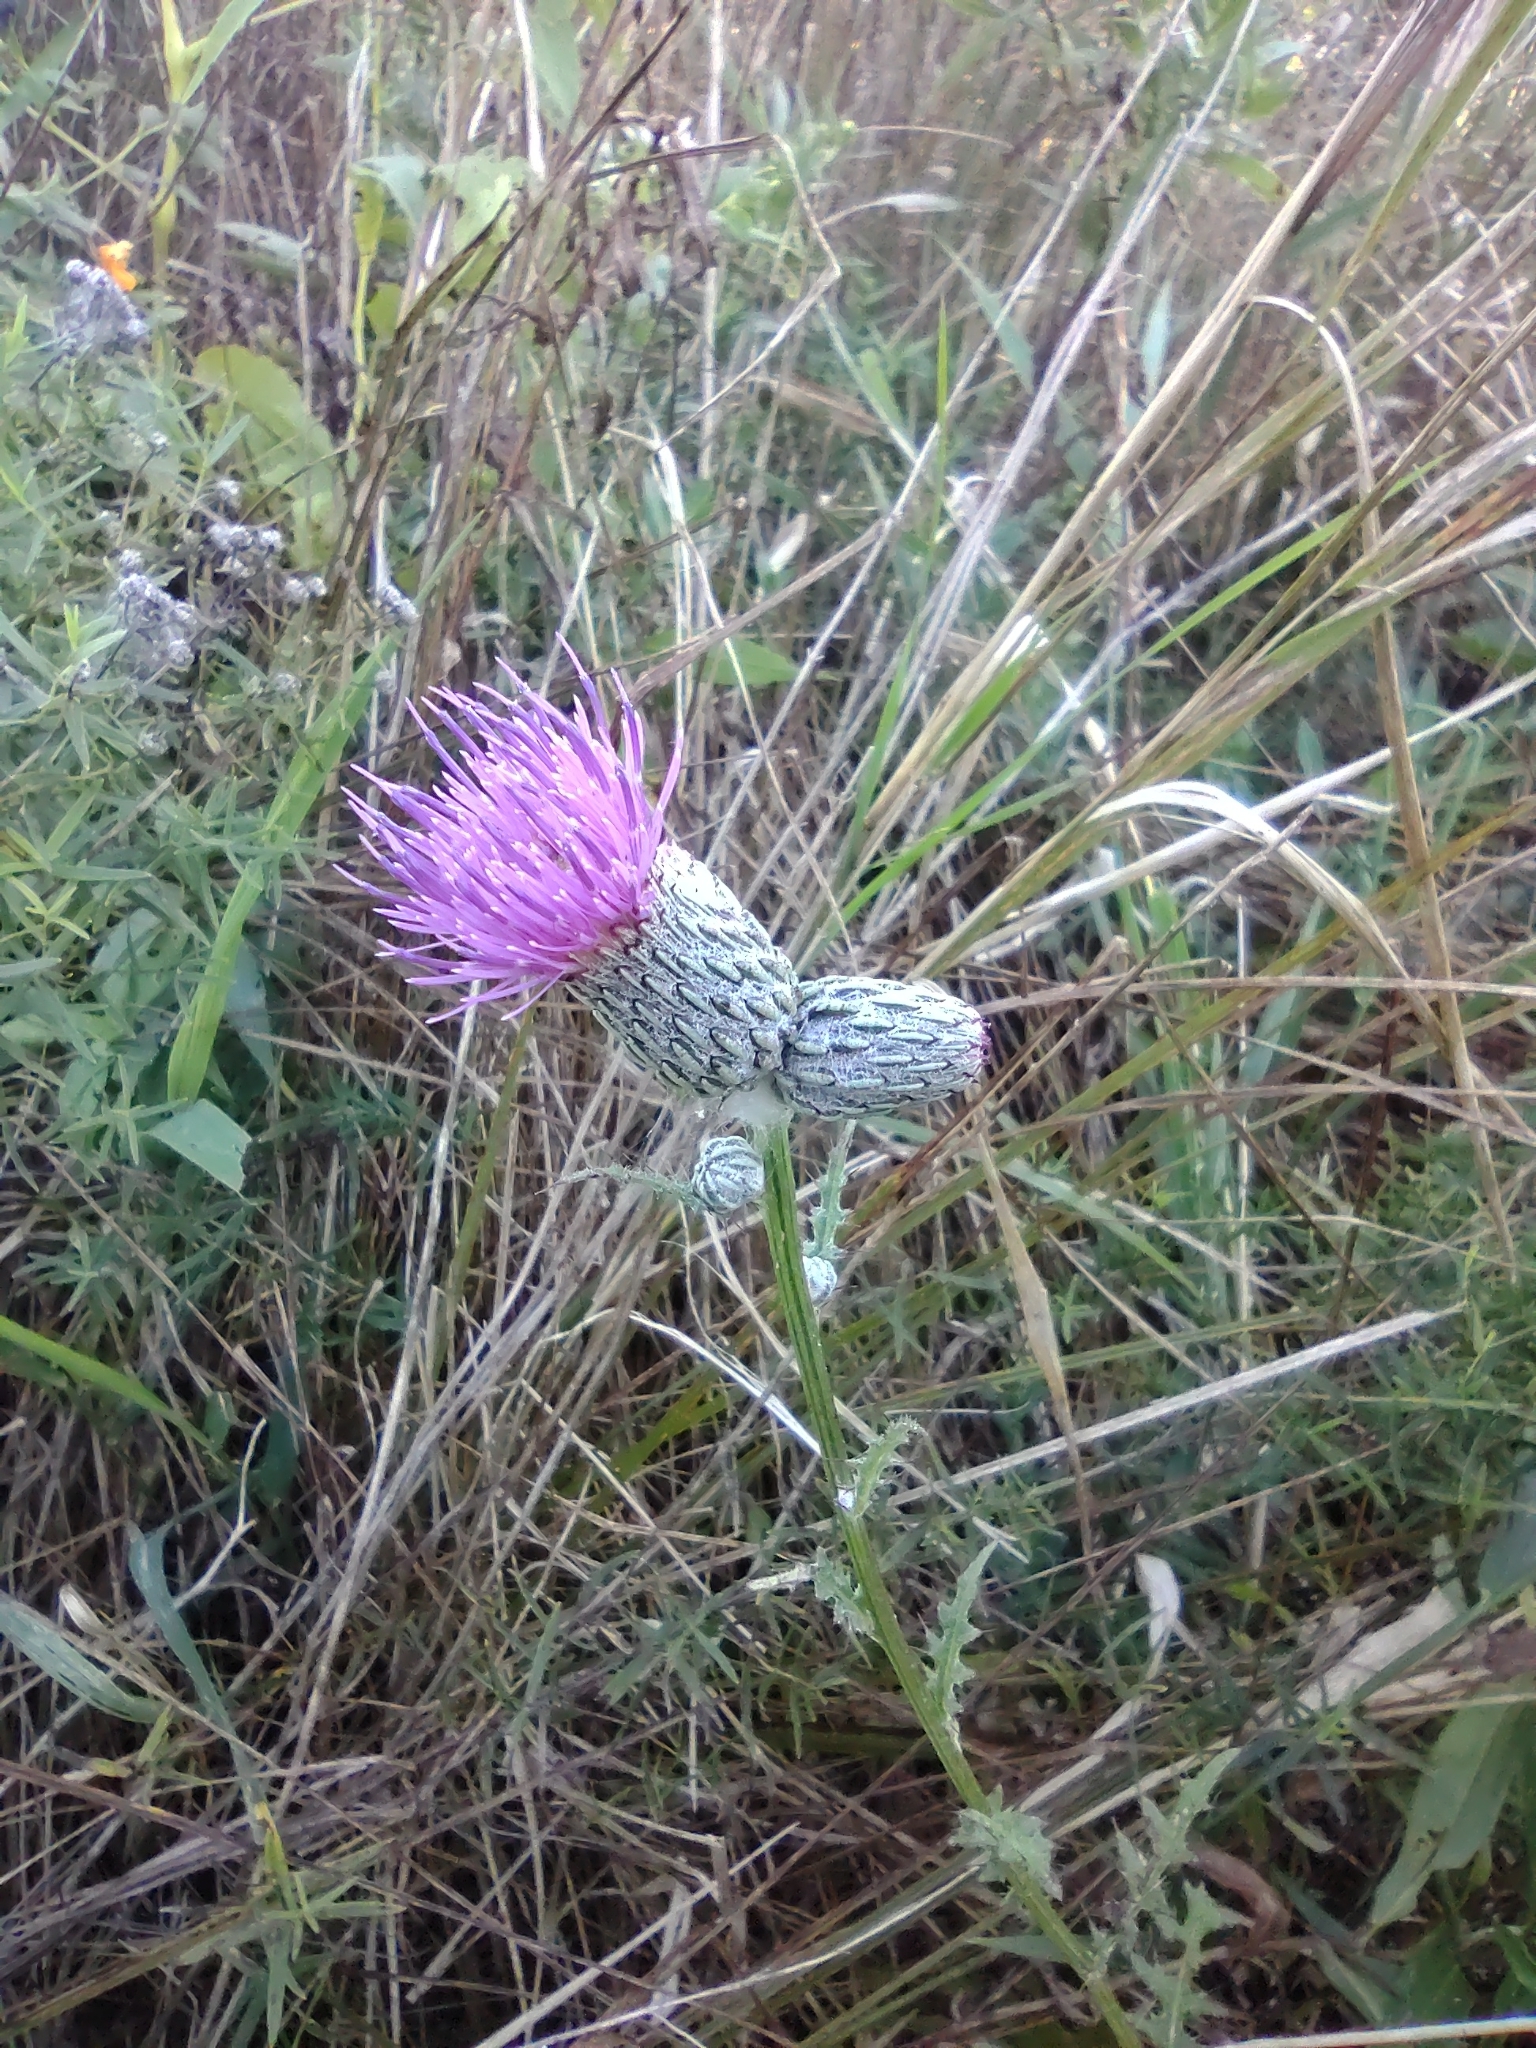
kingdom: Plantae
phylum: Tracheophyta
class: Magnoliopsida
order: Asterales
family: Asteraceae
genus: Cirsium
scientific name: Cirsium muticum
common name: Dunce-nettle
